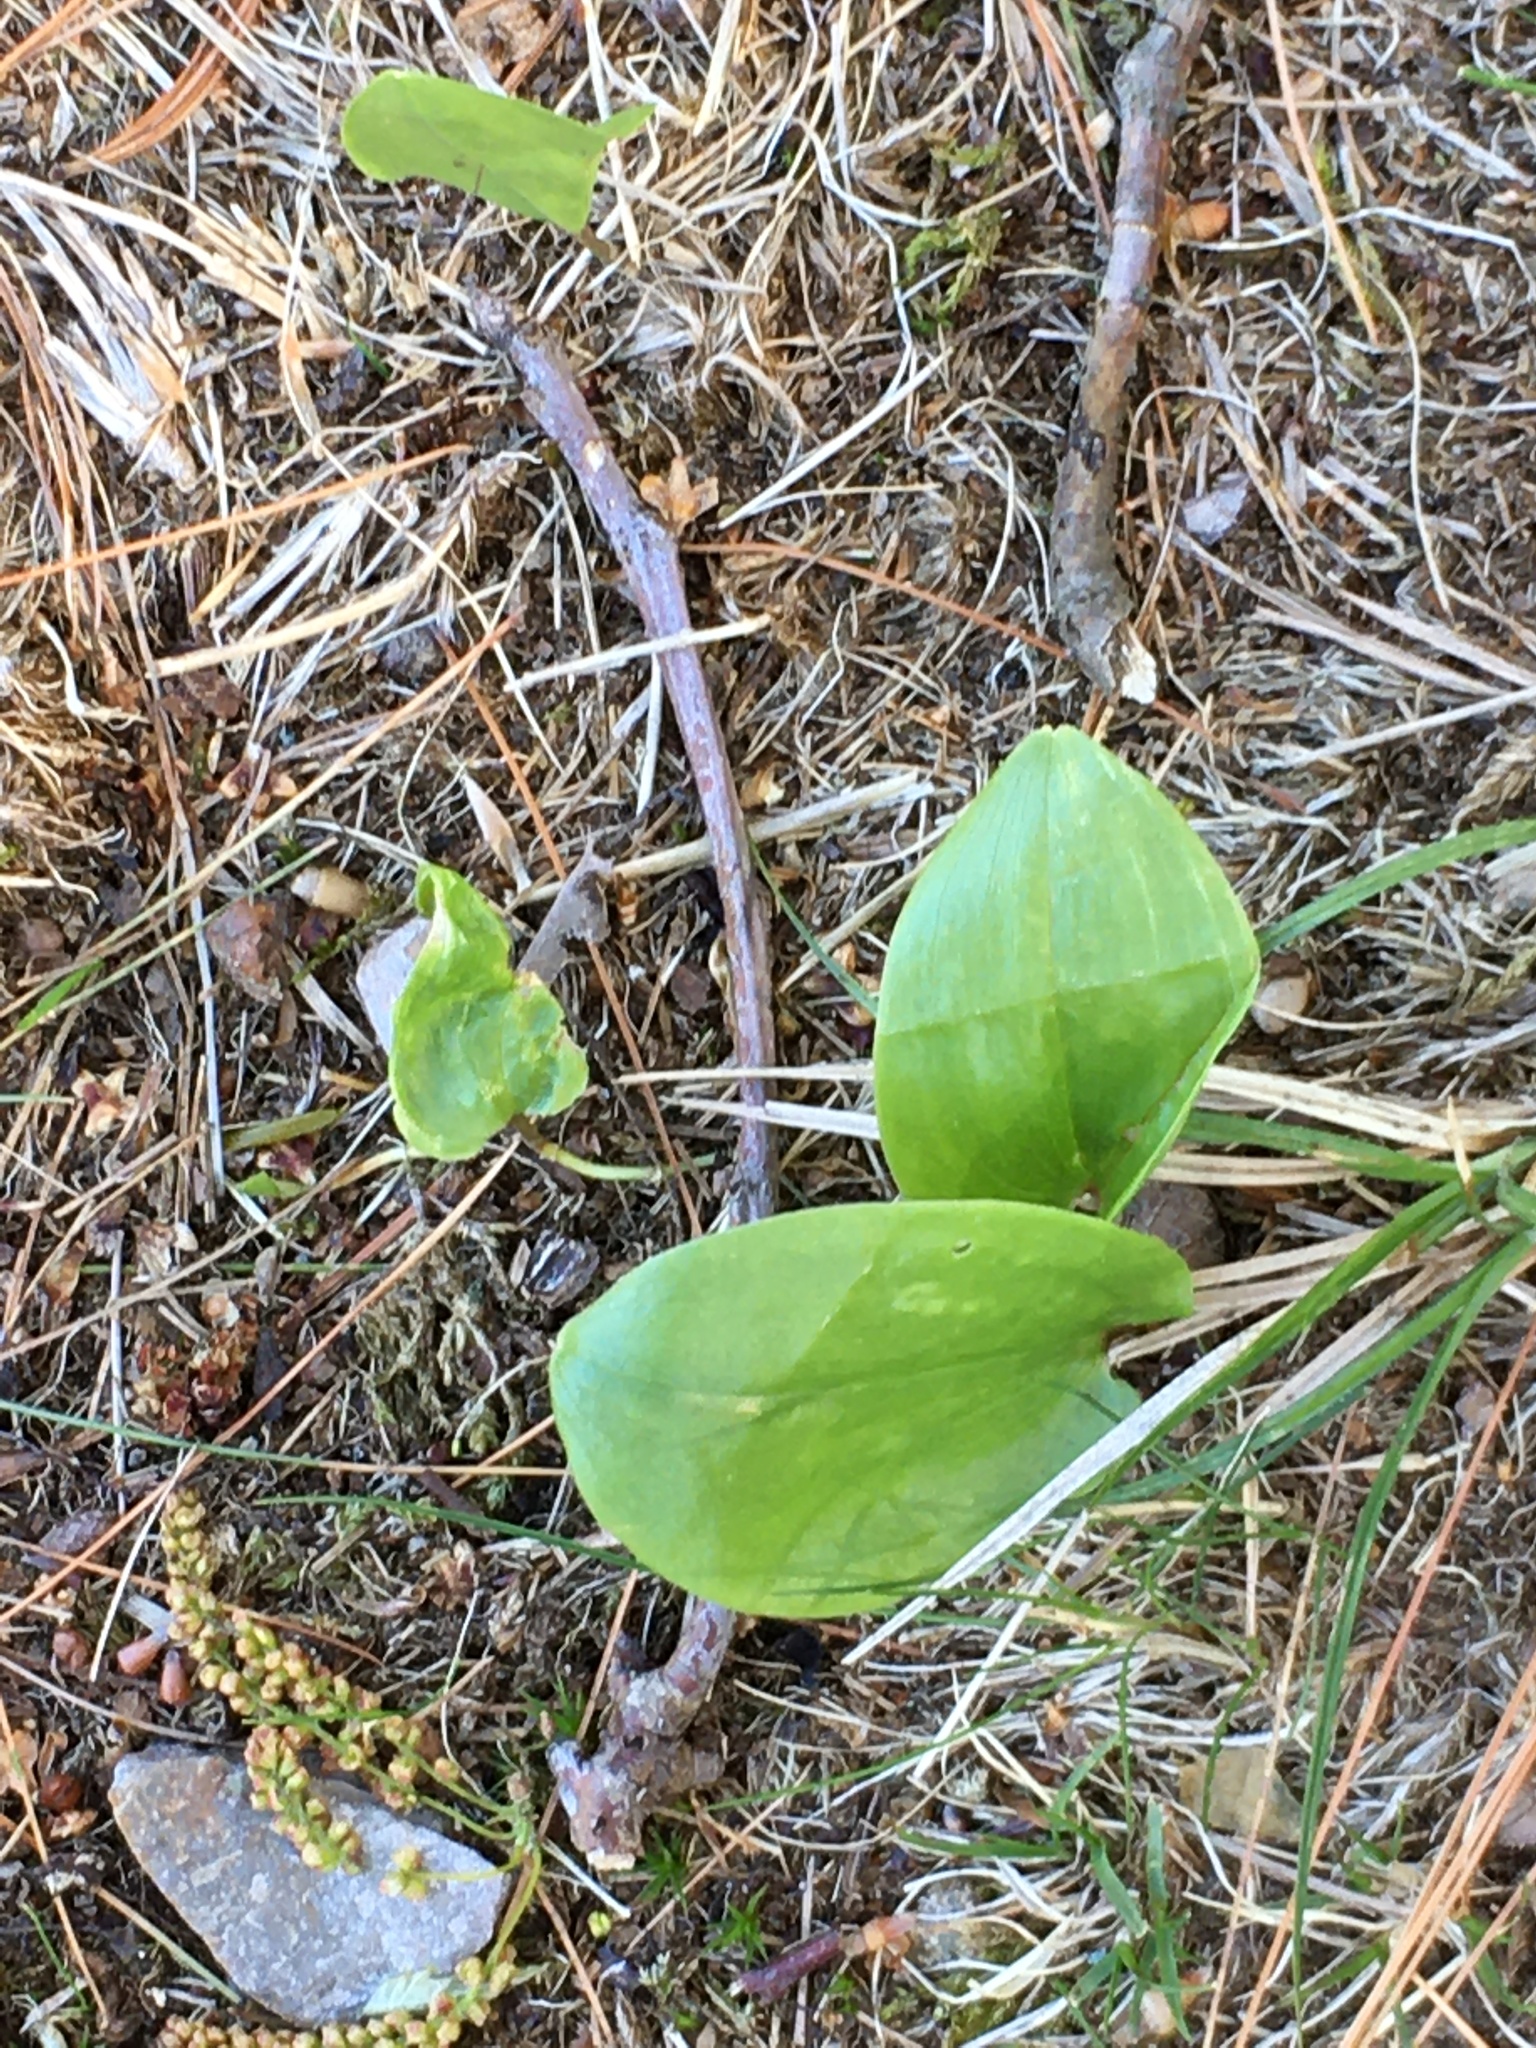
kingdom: Plantae
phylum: Tracheophyta
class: Liliopsida
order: Asparagales
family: Asparagaceae
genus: Maianthemum
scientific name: Maianthemum canadense
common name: False lily-of-the-valley
